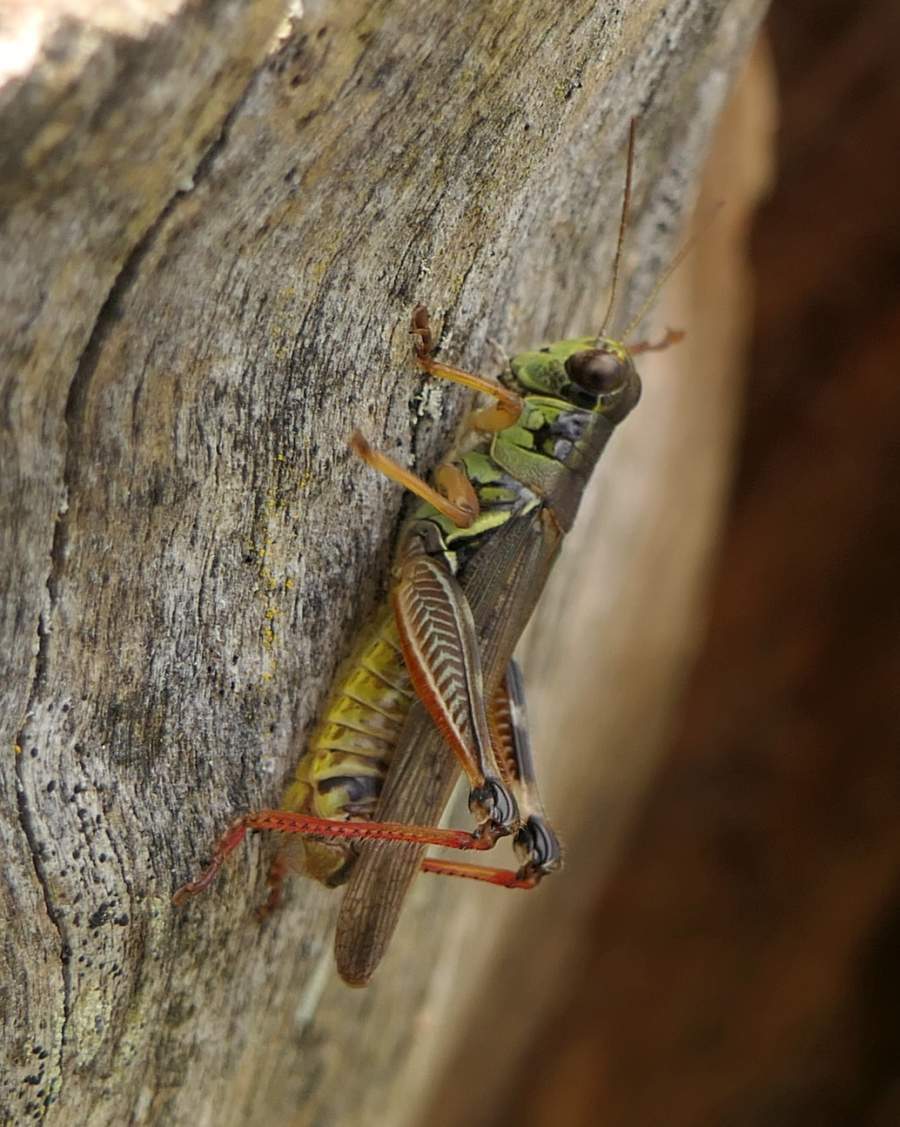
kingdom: Animalia
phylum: Arthropoda
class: Insecta
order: Orthoptera
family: Acrididae
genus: Melanoplus
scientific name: Melanoplus femurrubrum
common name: Red-legged grasshopper
